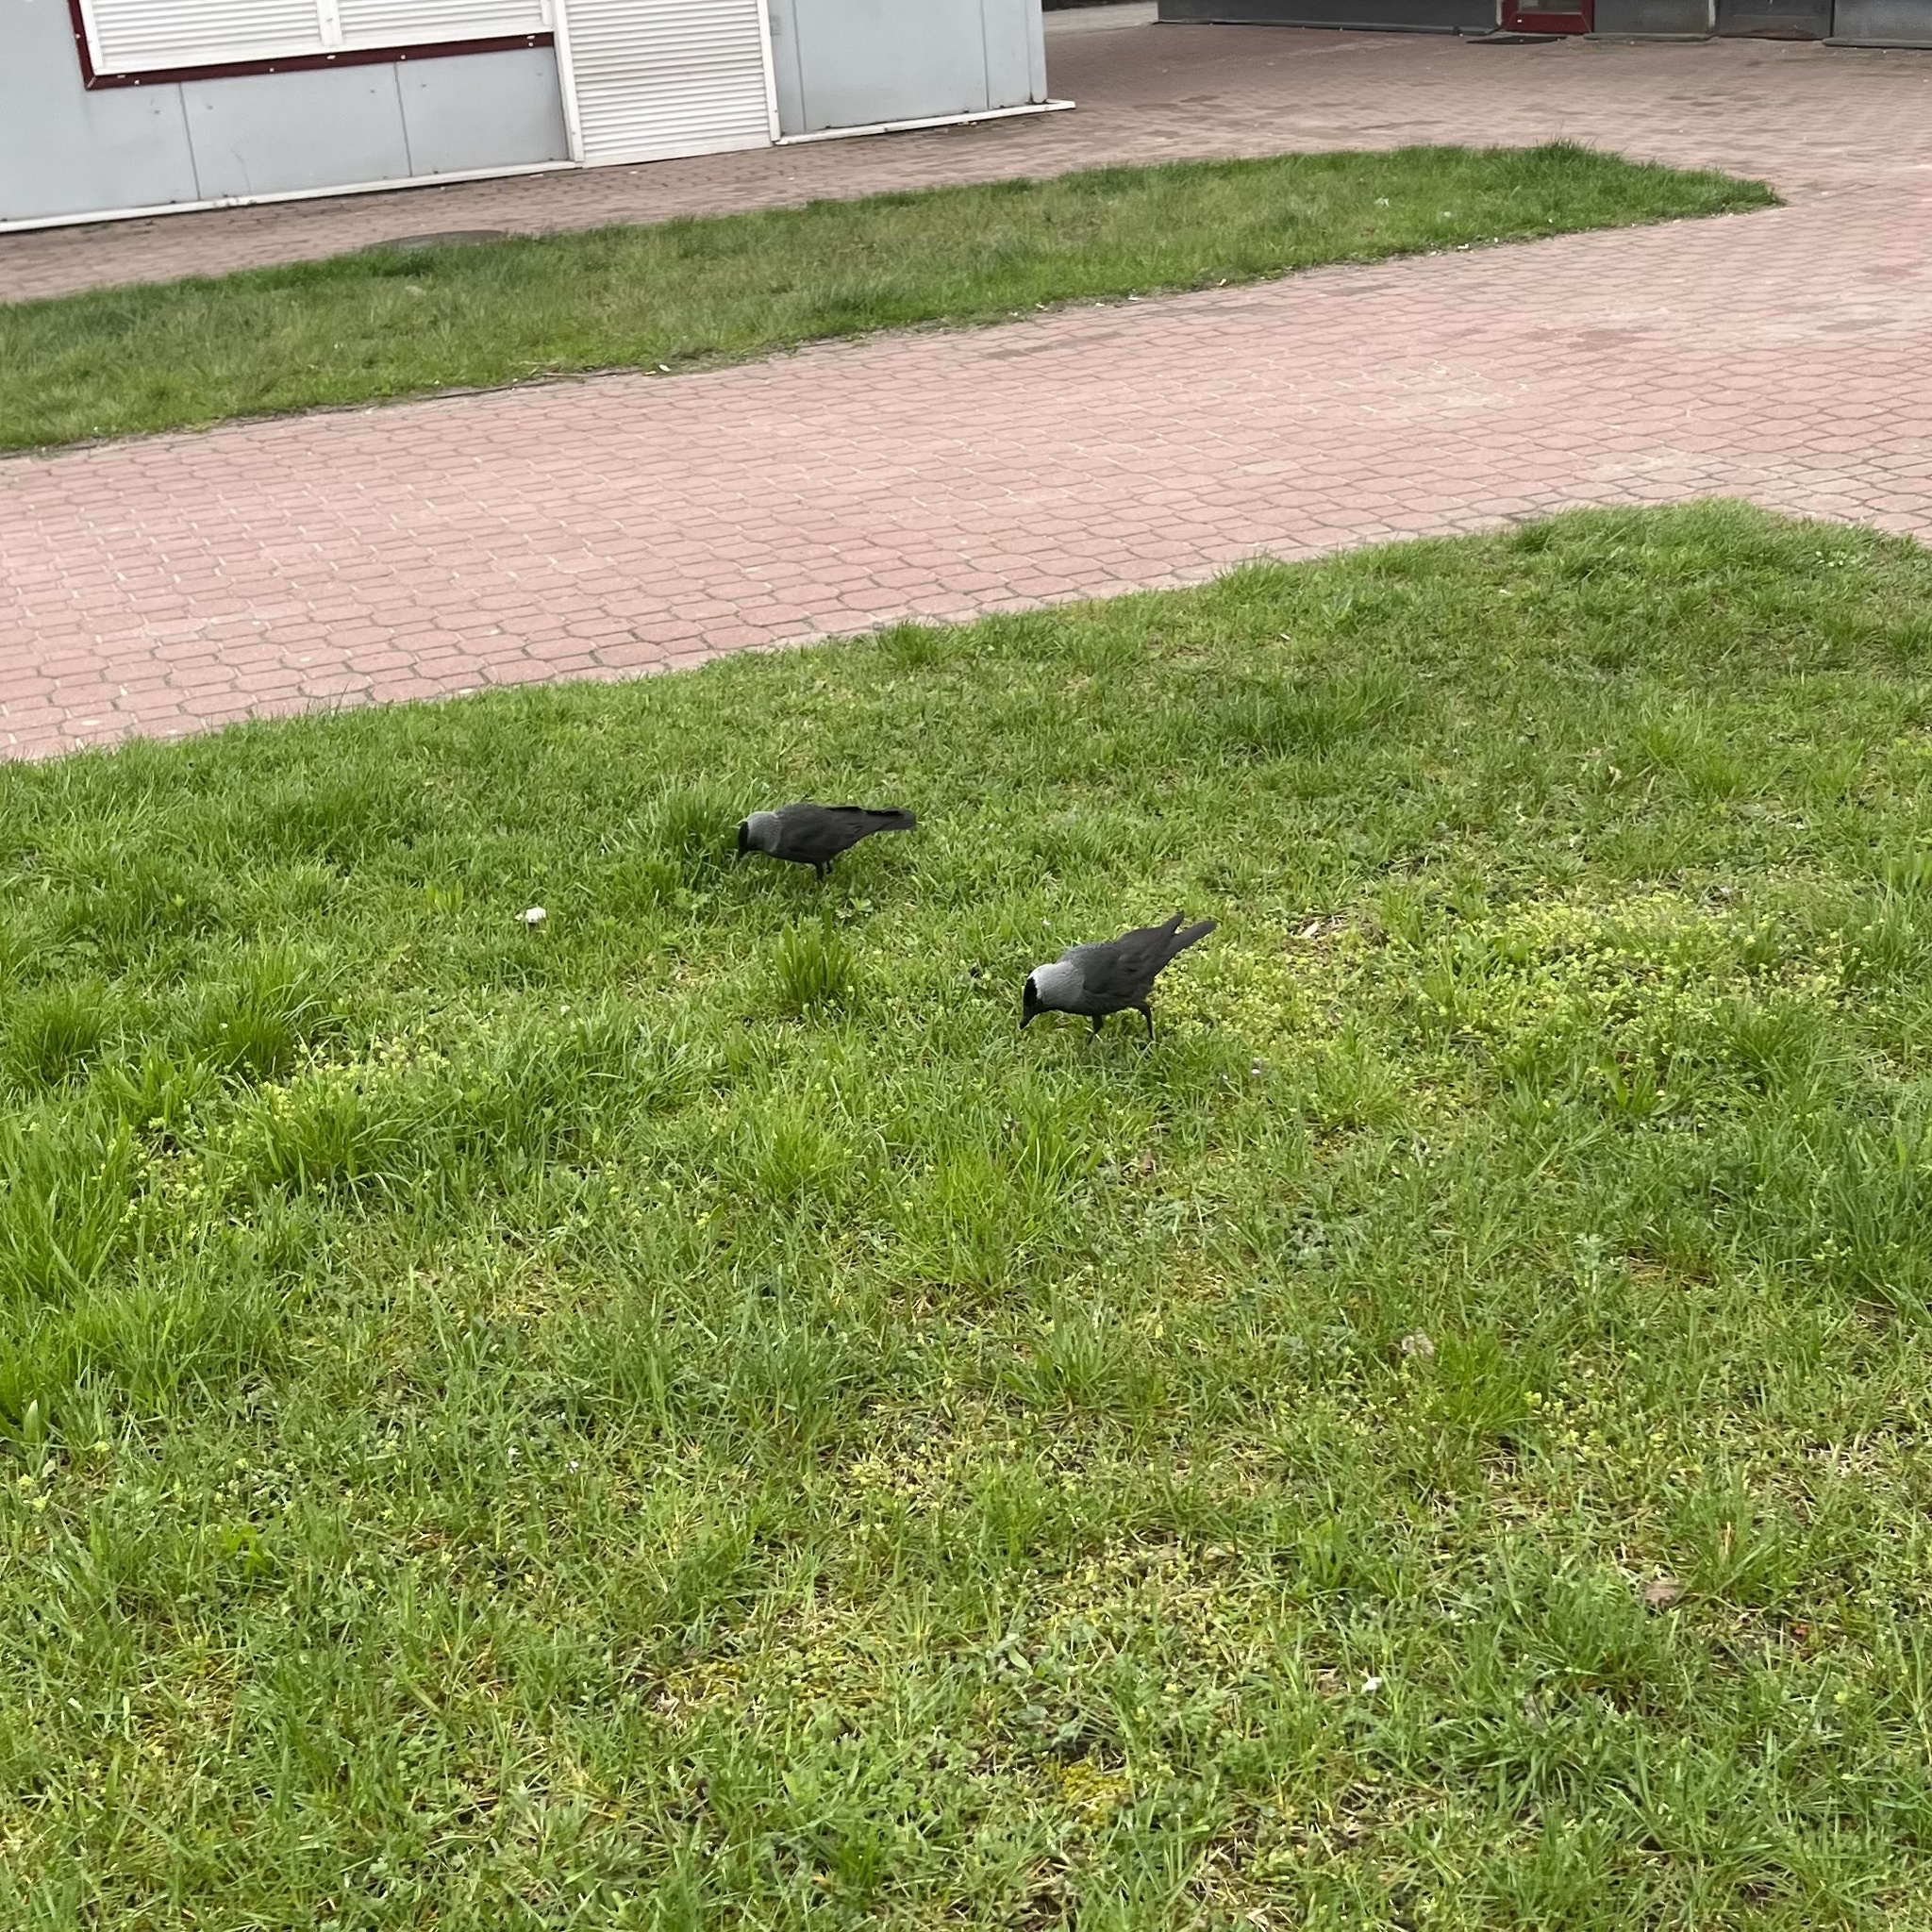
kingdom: Animalia
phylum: Chordata
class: Aves
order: Passeriformes
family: Corvidae
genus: Coloeus
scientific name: Coloeus monedula
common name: Western jackdaw
